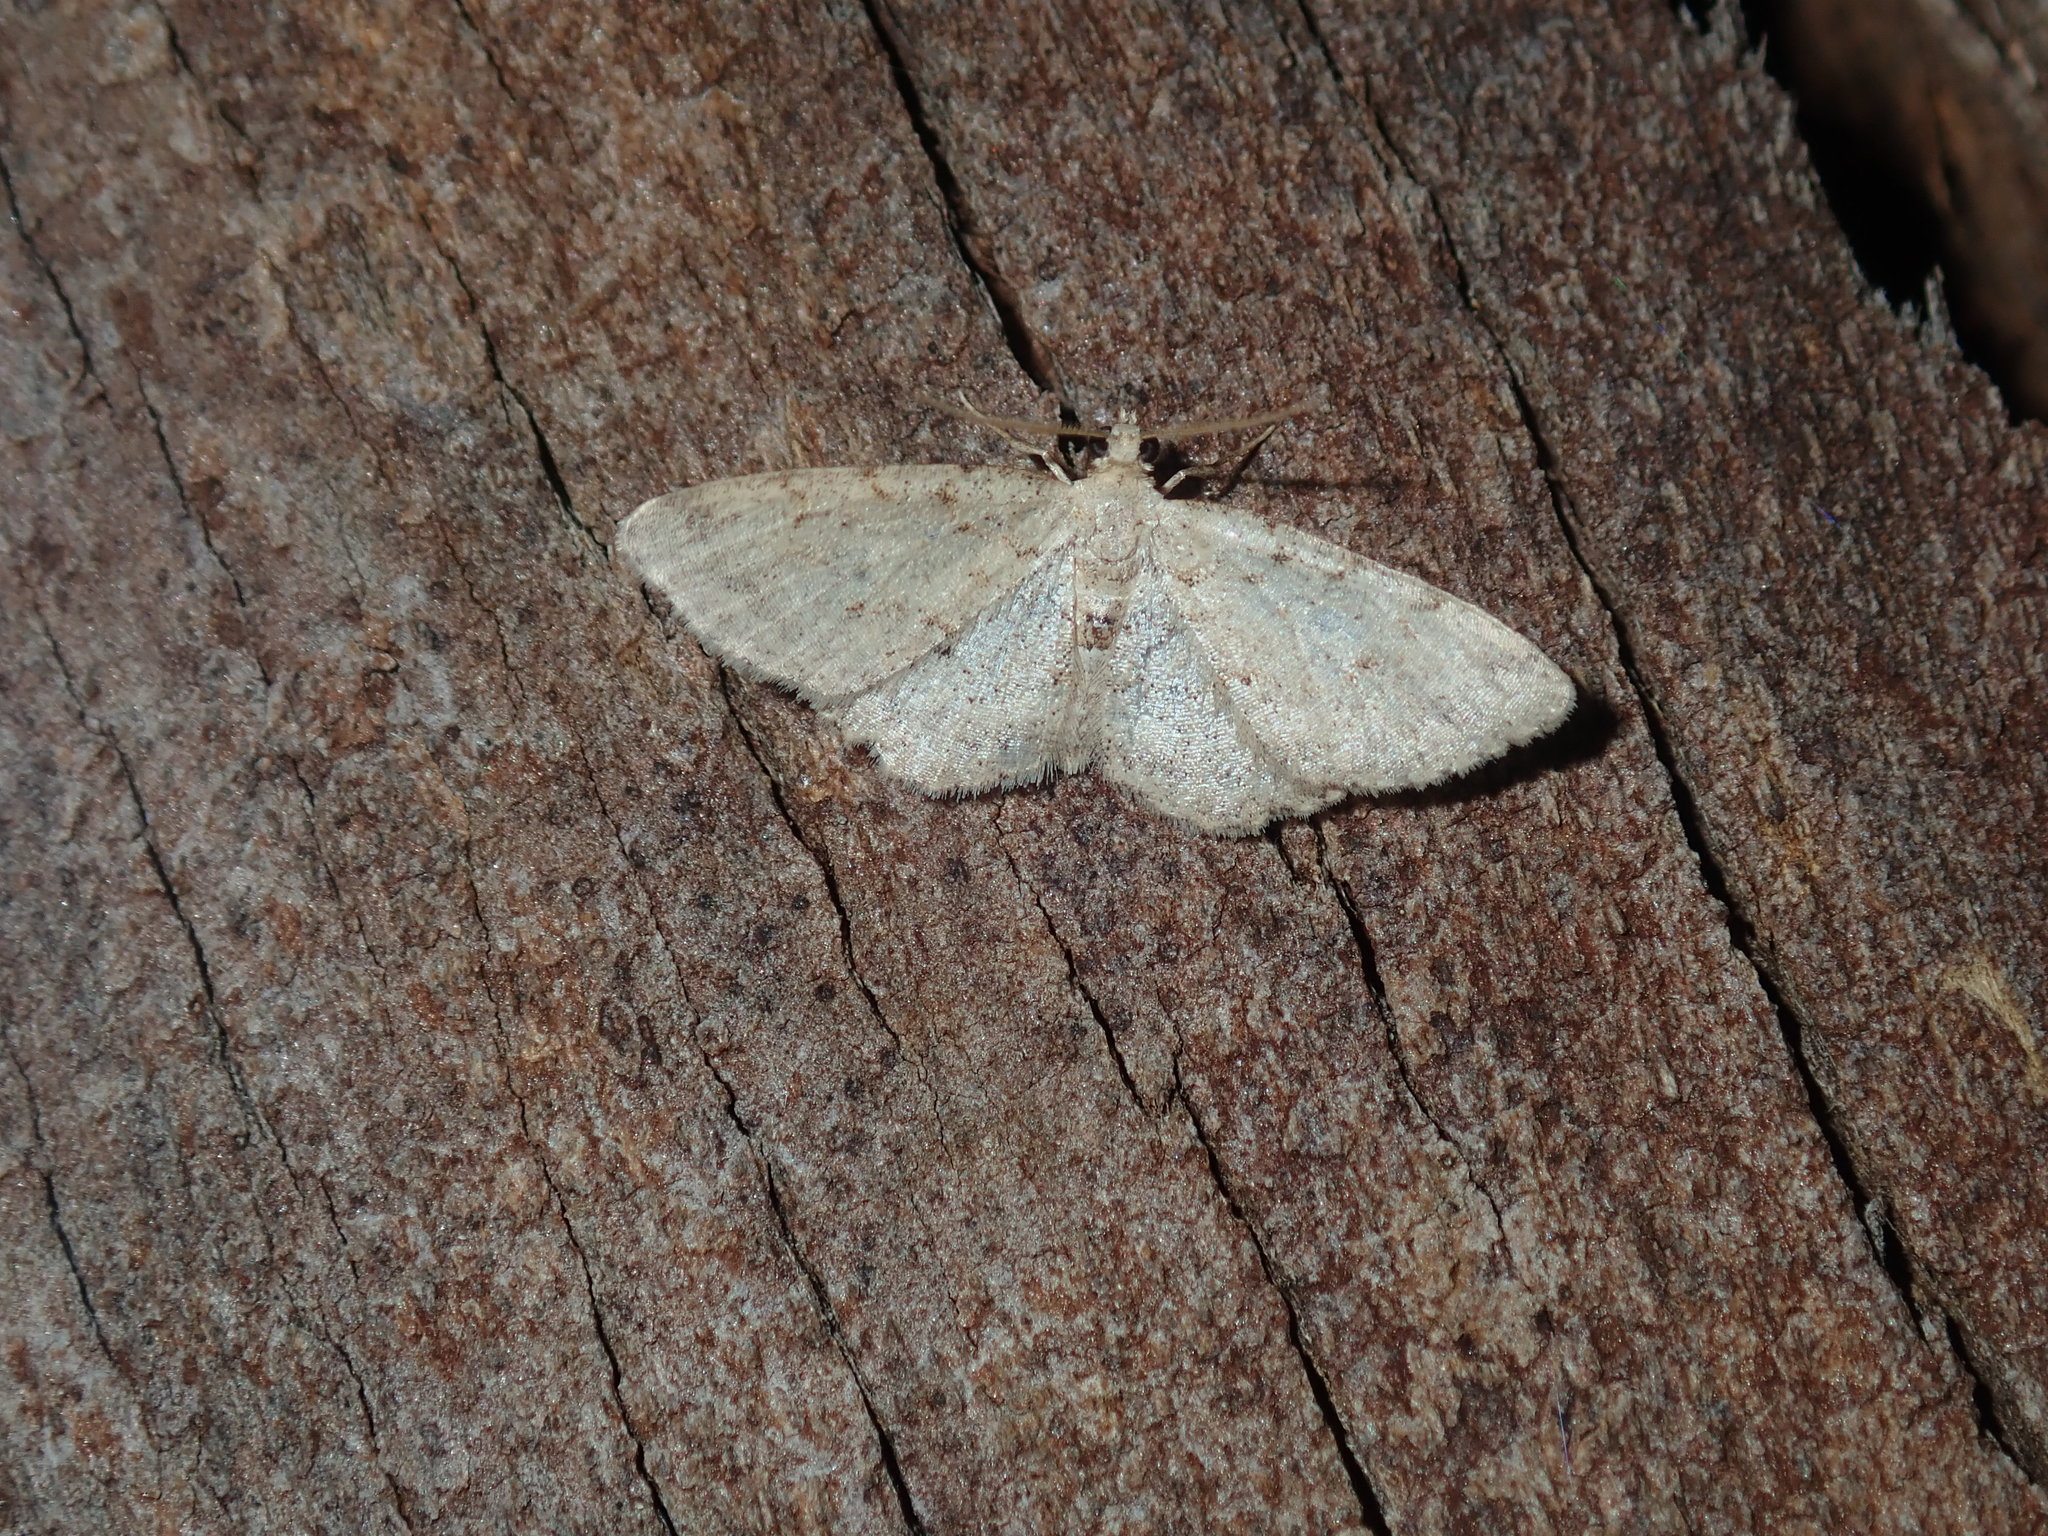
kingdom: Animalia
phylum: Arthropoda
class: Insecta
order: Lepidoptera
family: Geometridae
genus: Ectropis
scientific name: Ectropis argalea
